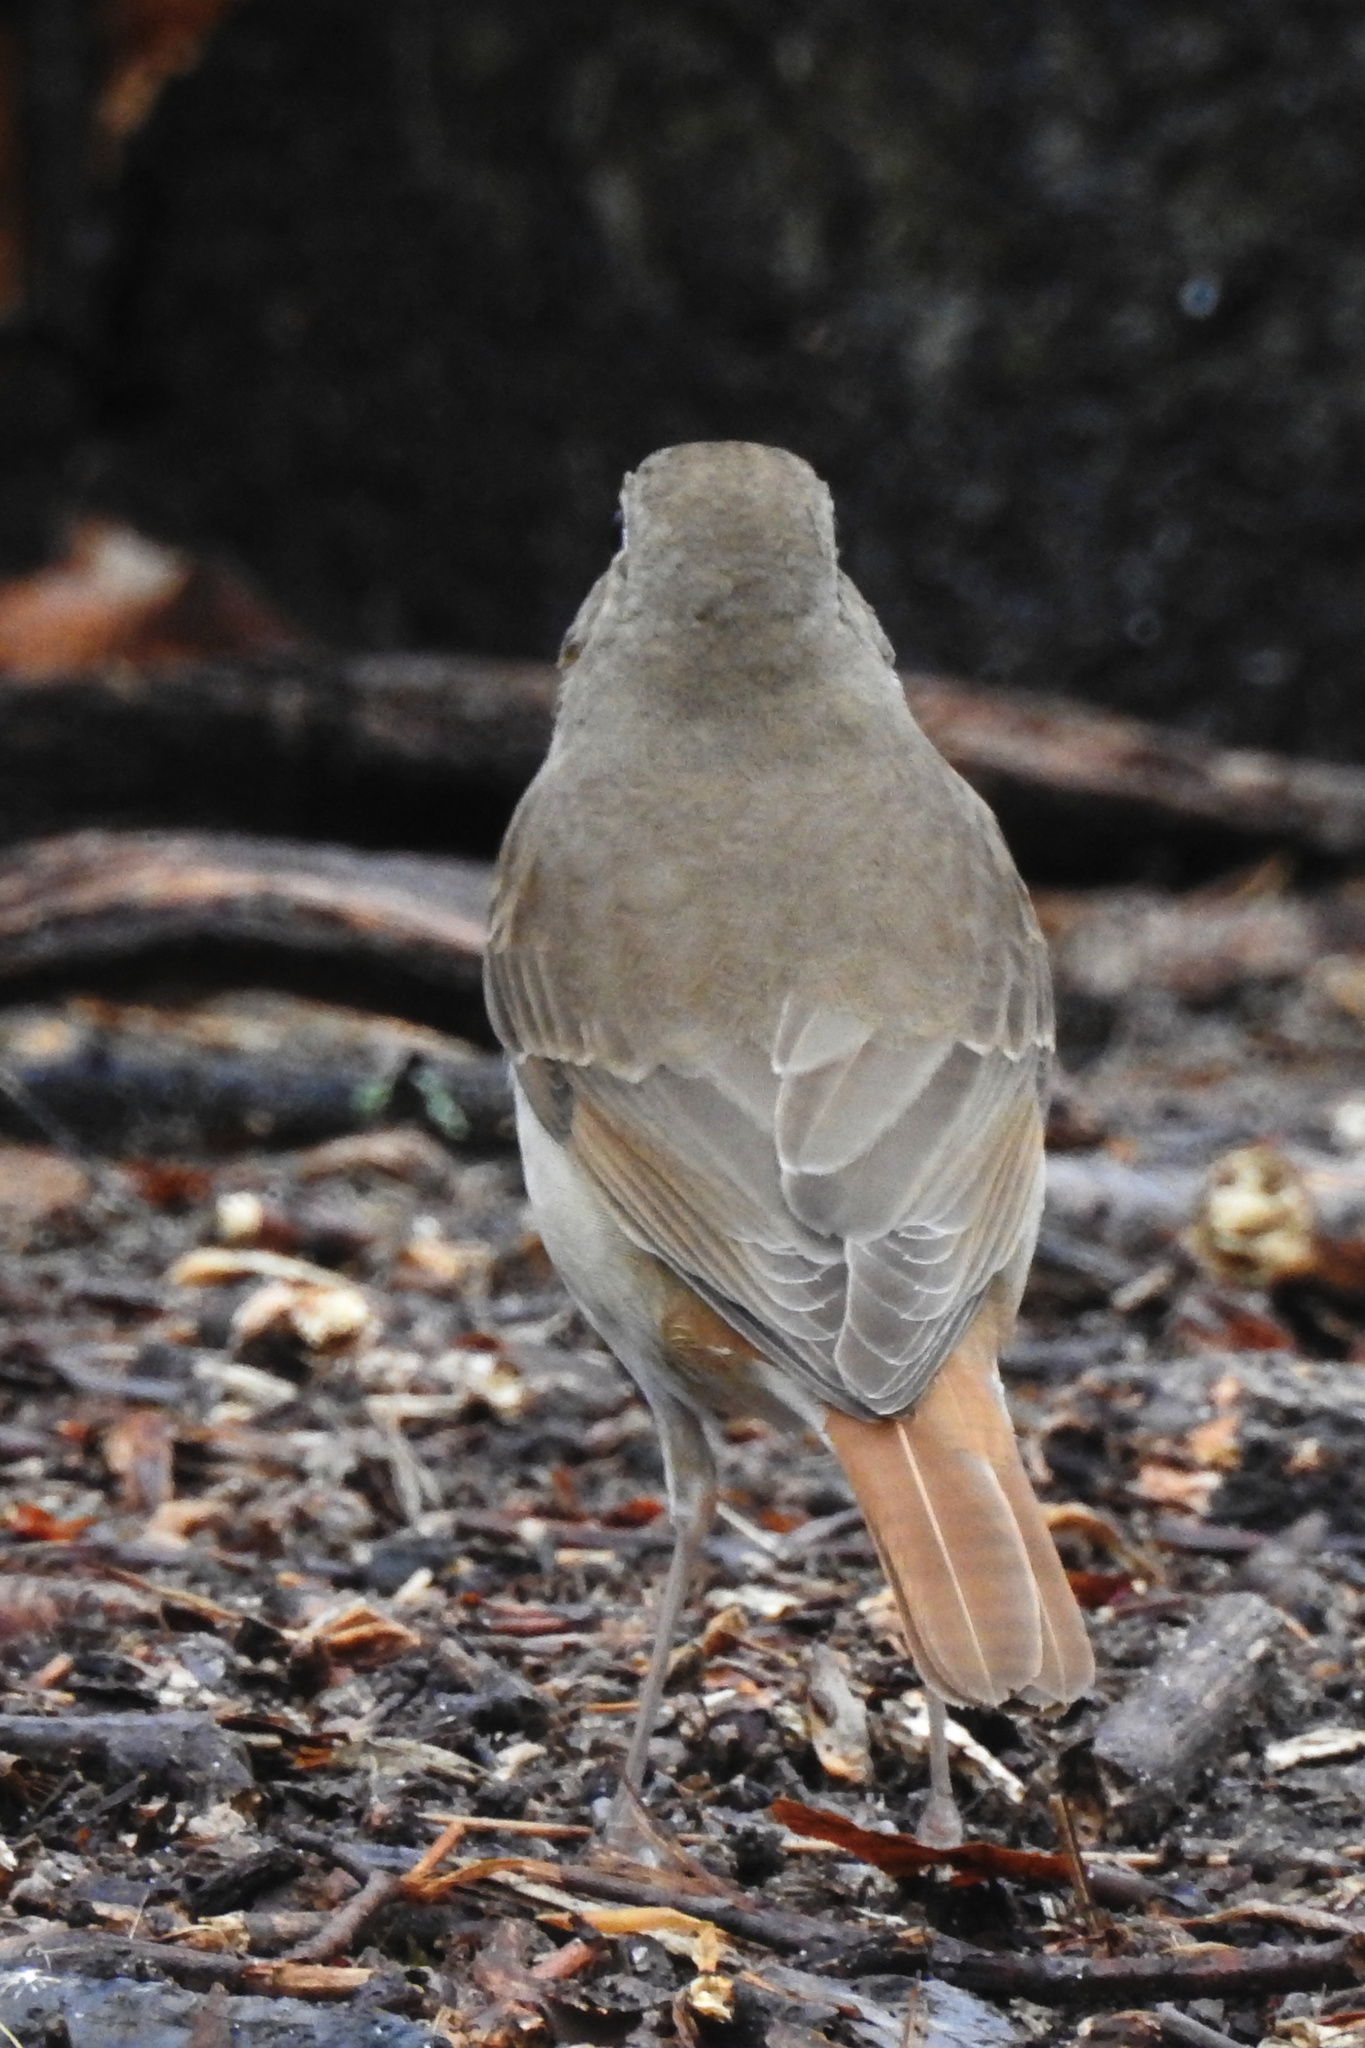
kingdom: Animalia
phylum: Chordata
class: Aves
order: Passeriformes
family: Turdidae
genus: Catharus
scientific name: Catharus guttatus
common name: Hermit thrush
